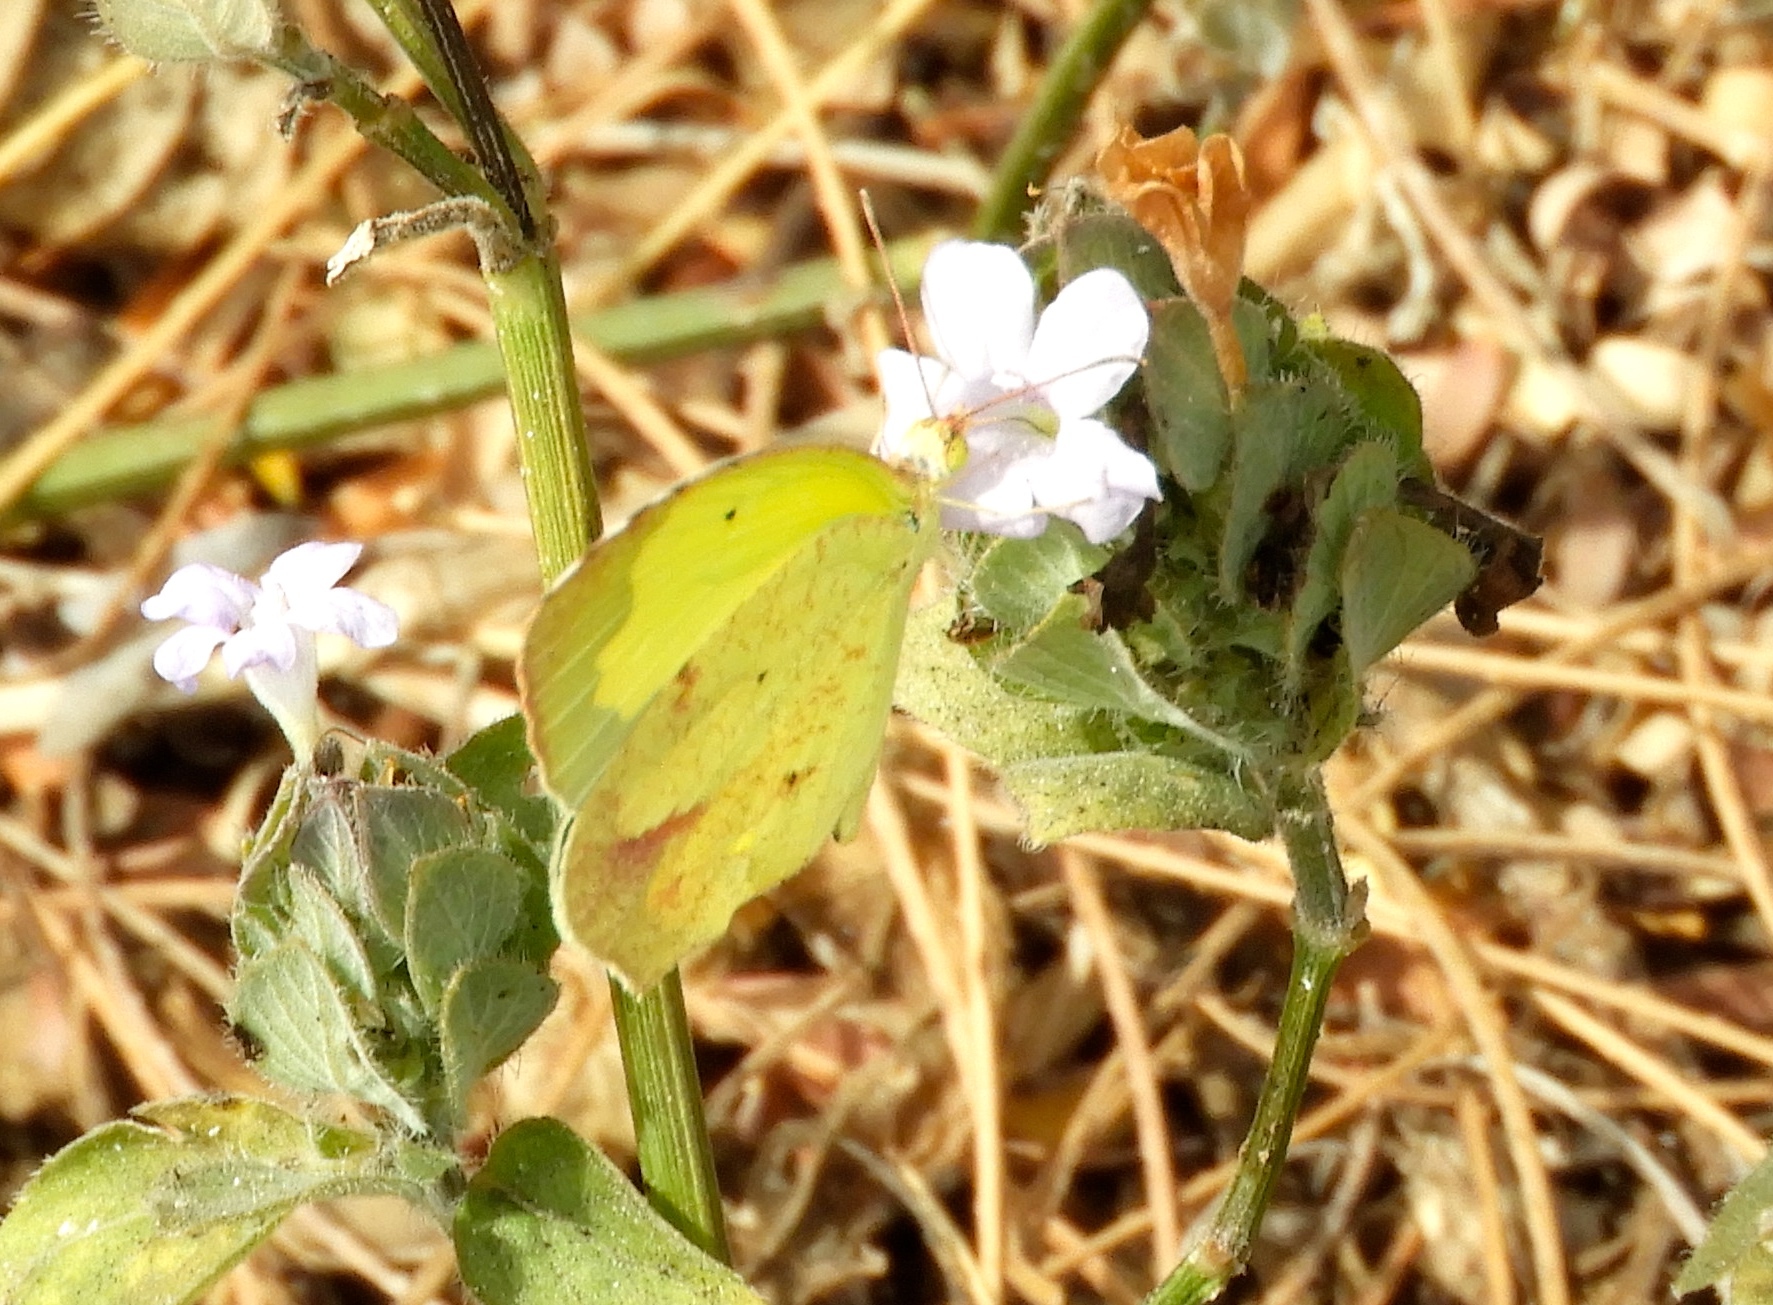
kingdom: Animalia
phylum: Arthropoda
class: Insecta
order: Lepidoptera
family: Pieridae
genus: Abaeis
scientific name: Abaeis mexicana
